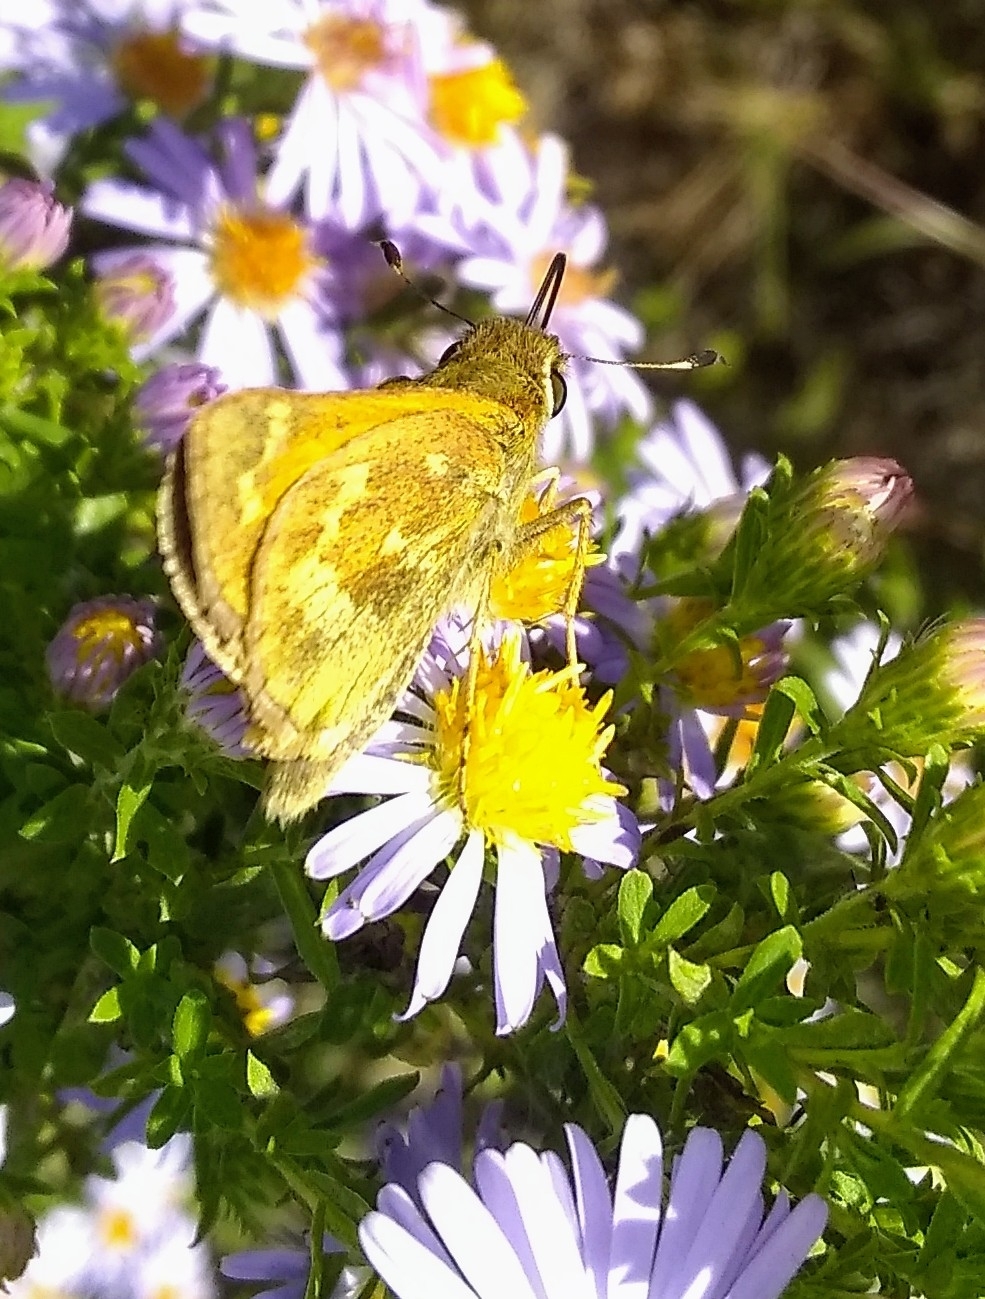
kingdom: Animalia
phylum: Arthropoda
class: Insecta
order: Lepidoptera
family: Hesperiidae
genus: Atalopedes
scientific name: Atalopedes
